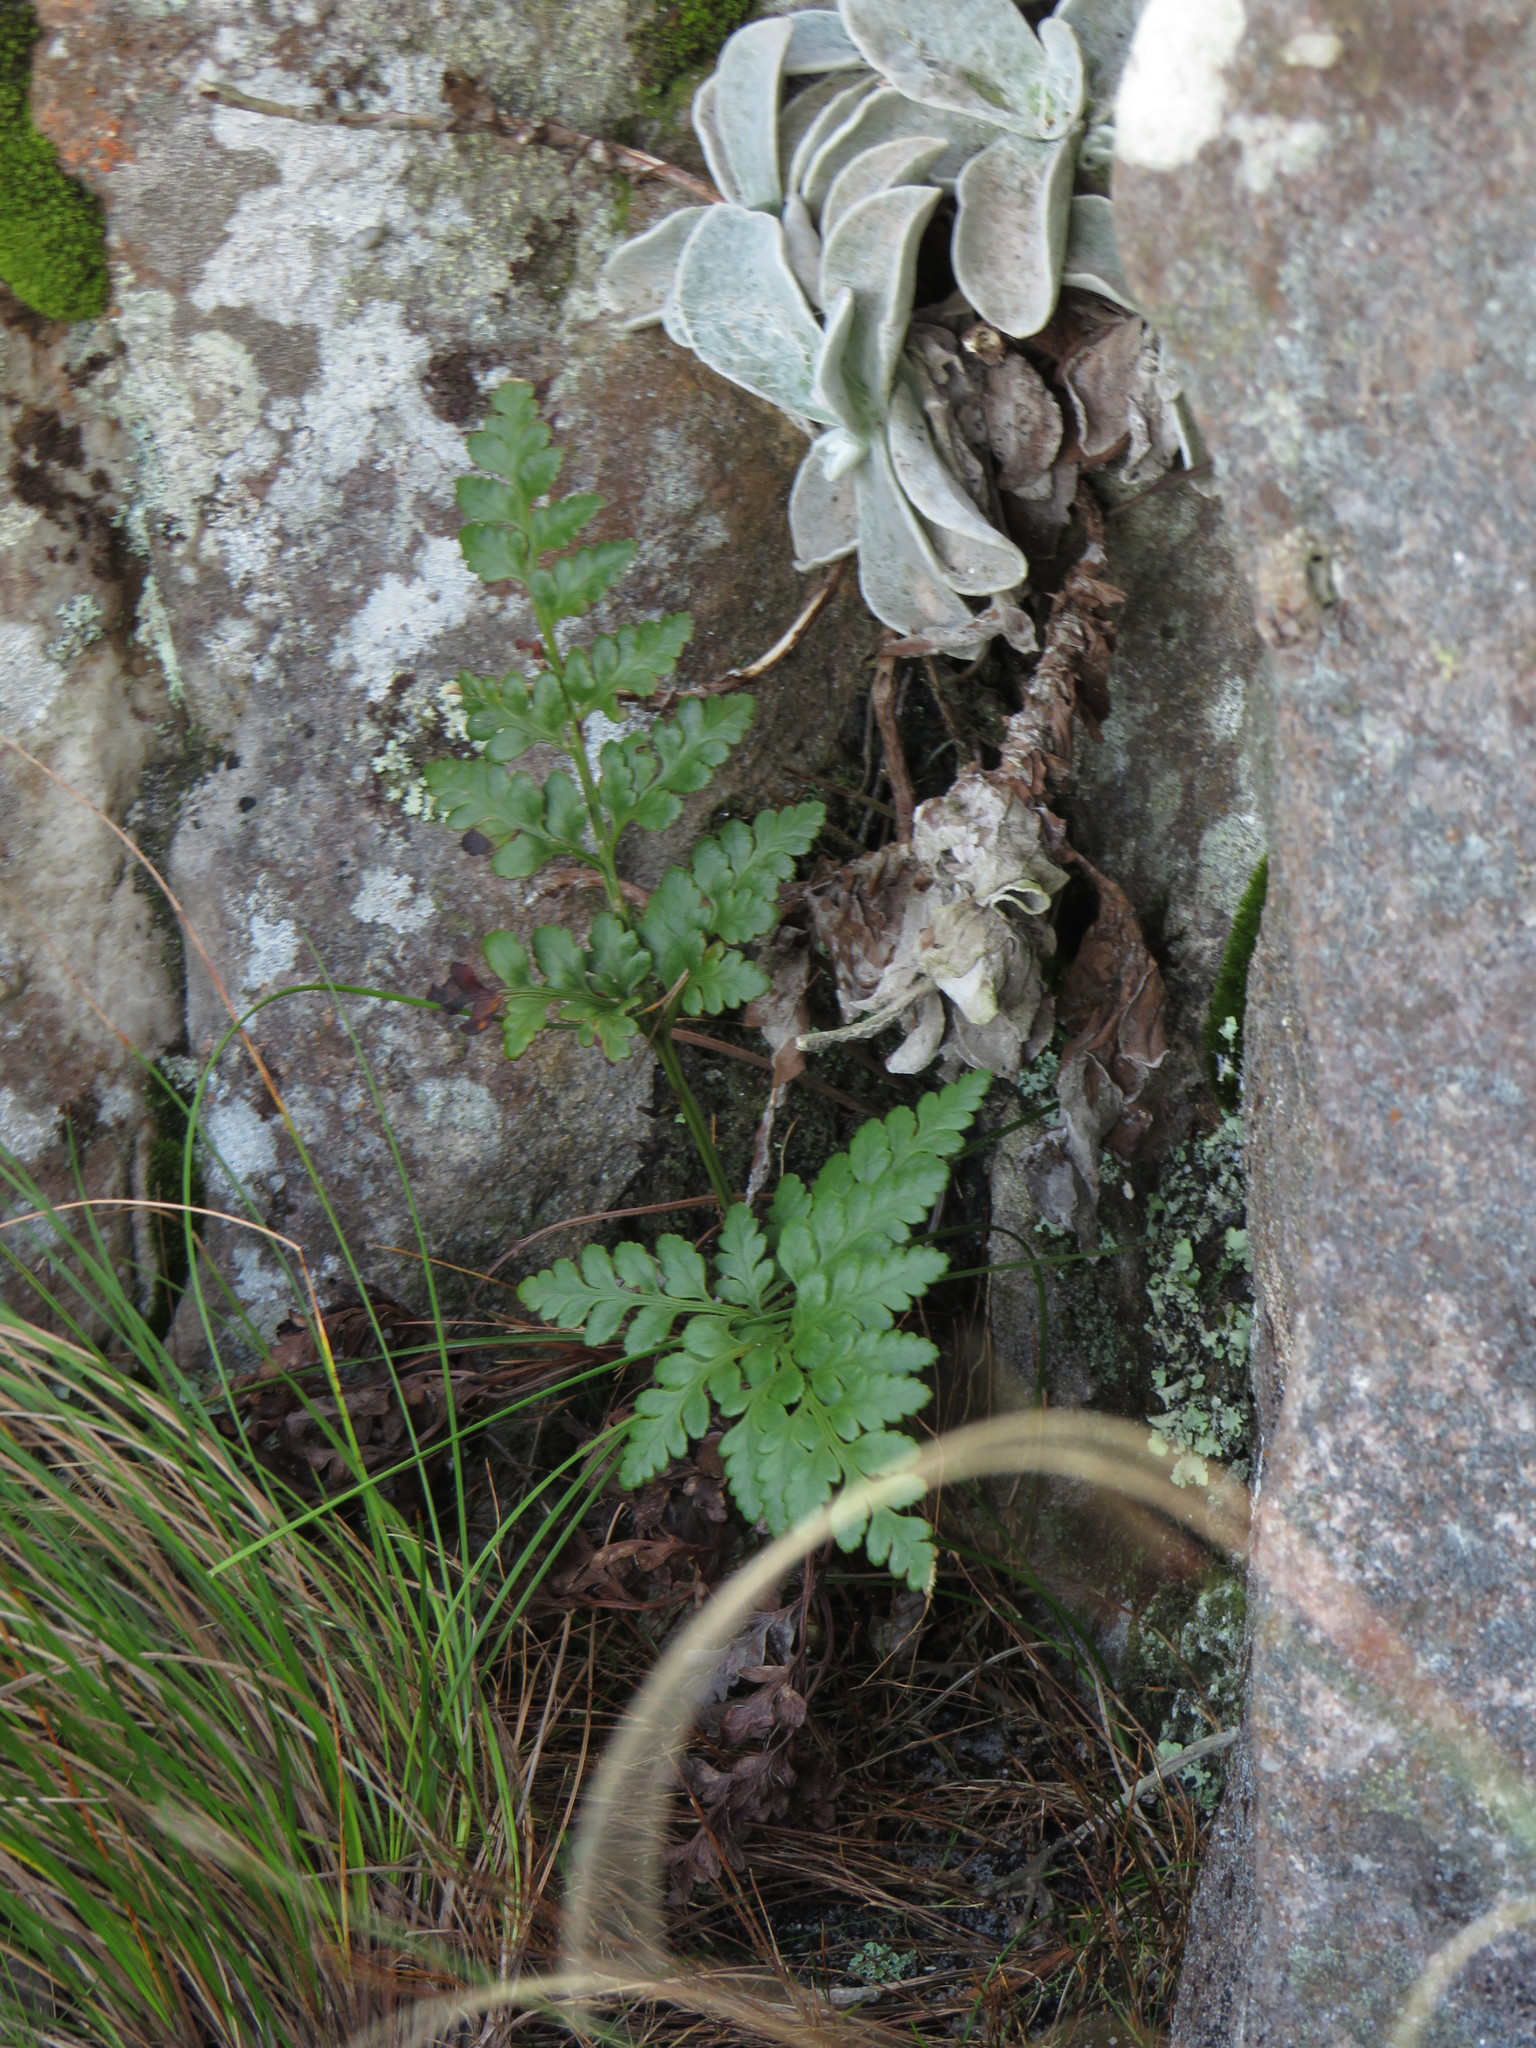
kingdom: Plantae
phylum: Tracheophyta
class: Polypodiopsida
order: Polypodiales
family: Dryopteridaceae
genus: Rumohra
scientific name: Rumohra adiantiformis
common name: Leather fern
